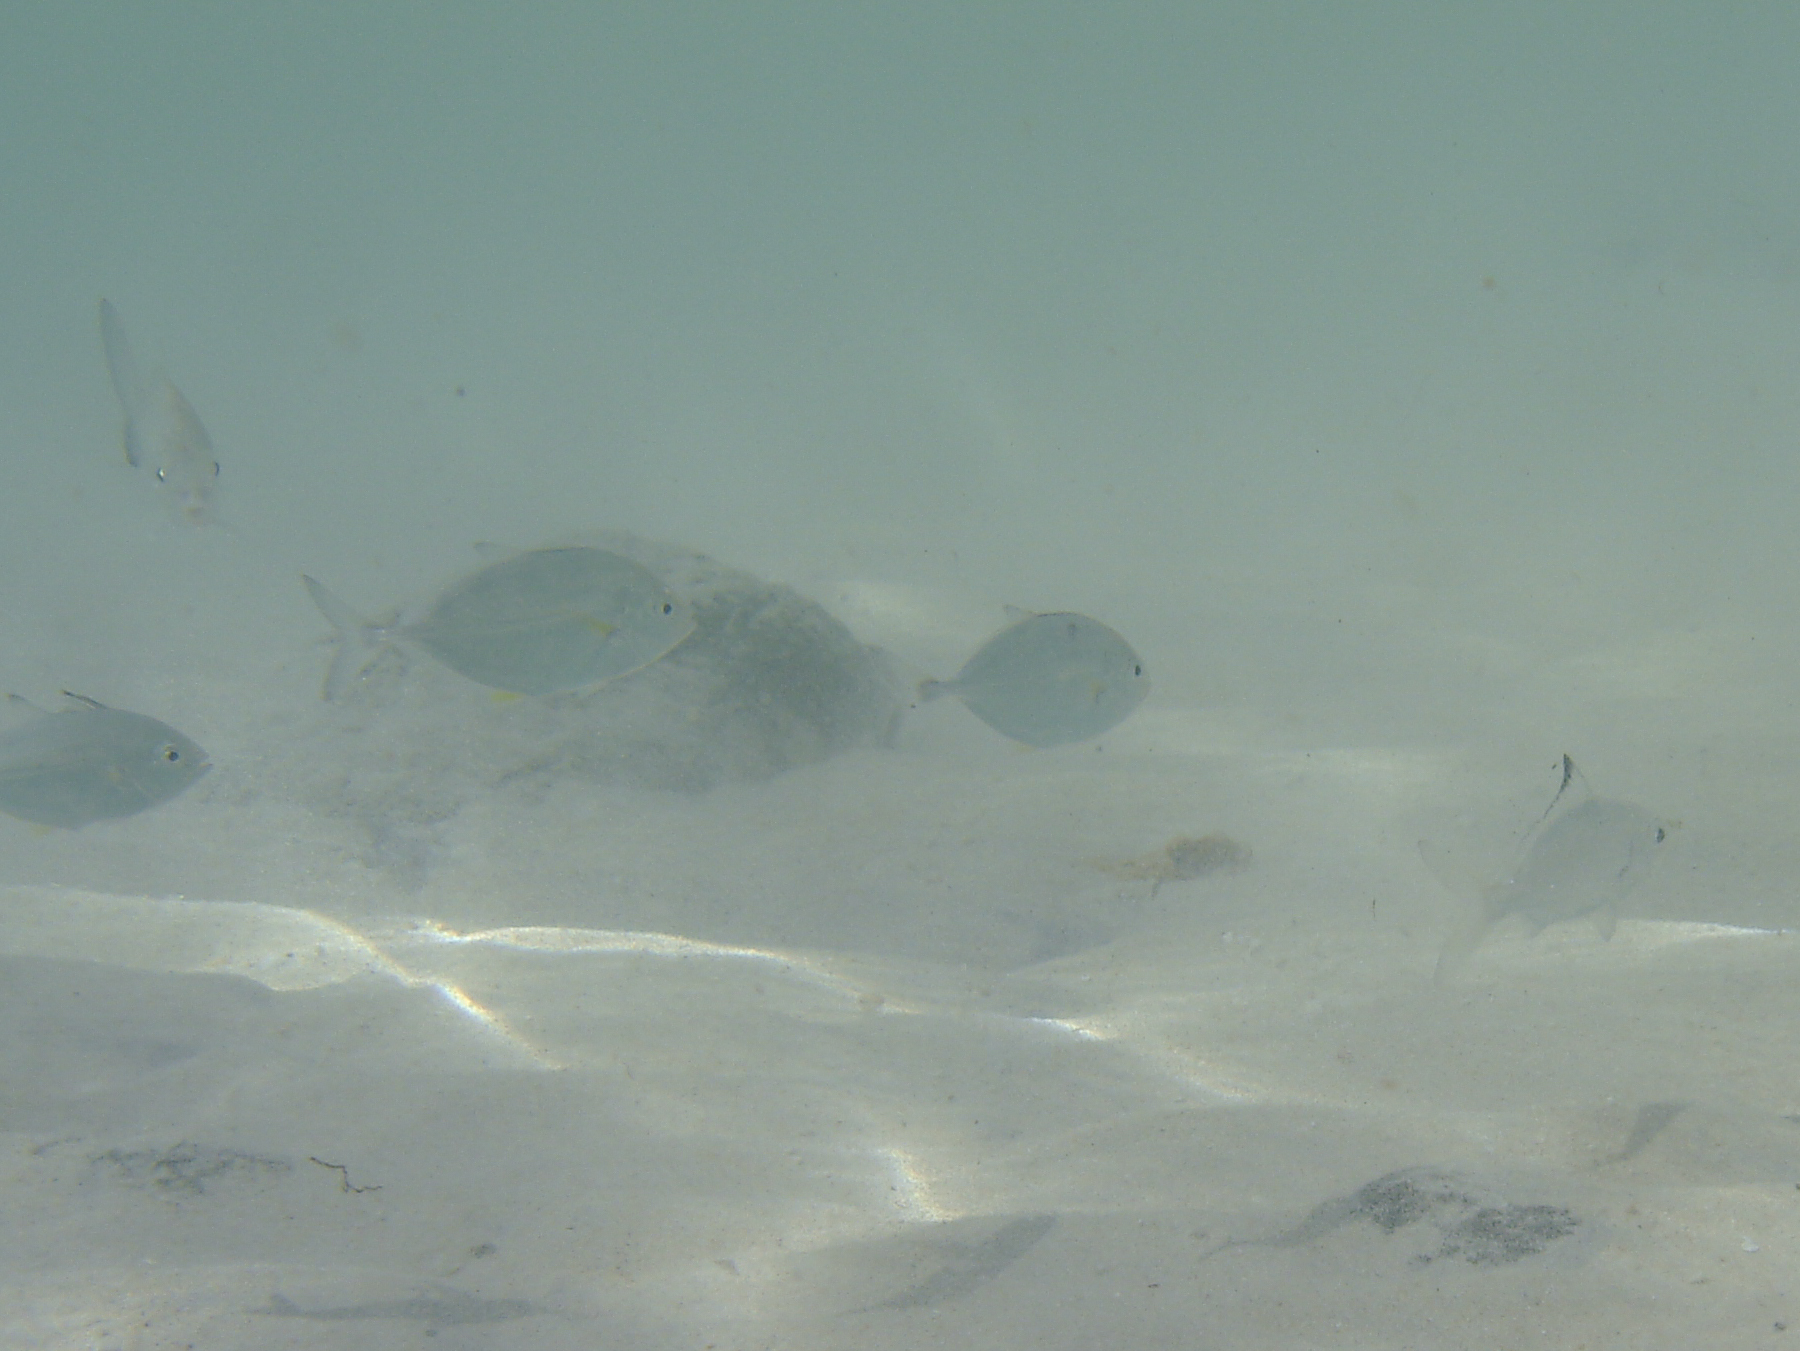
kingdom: Animalia
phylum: Chordata
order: Perciformes
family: Gerreidae
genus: Gerres
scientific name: Gerres oyena
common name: Common silver-biddy
